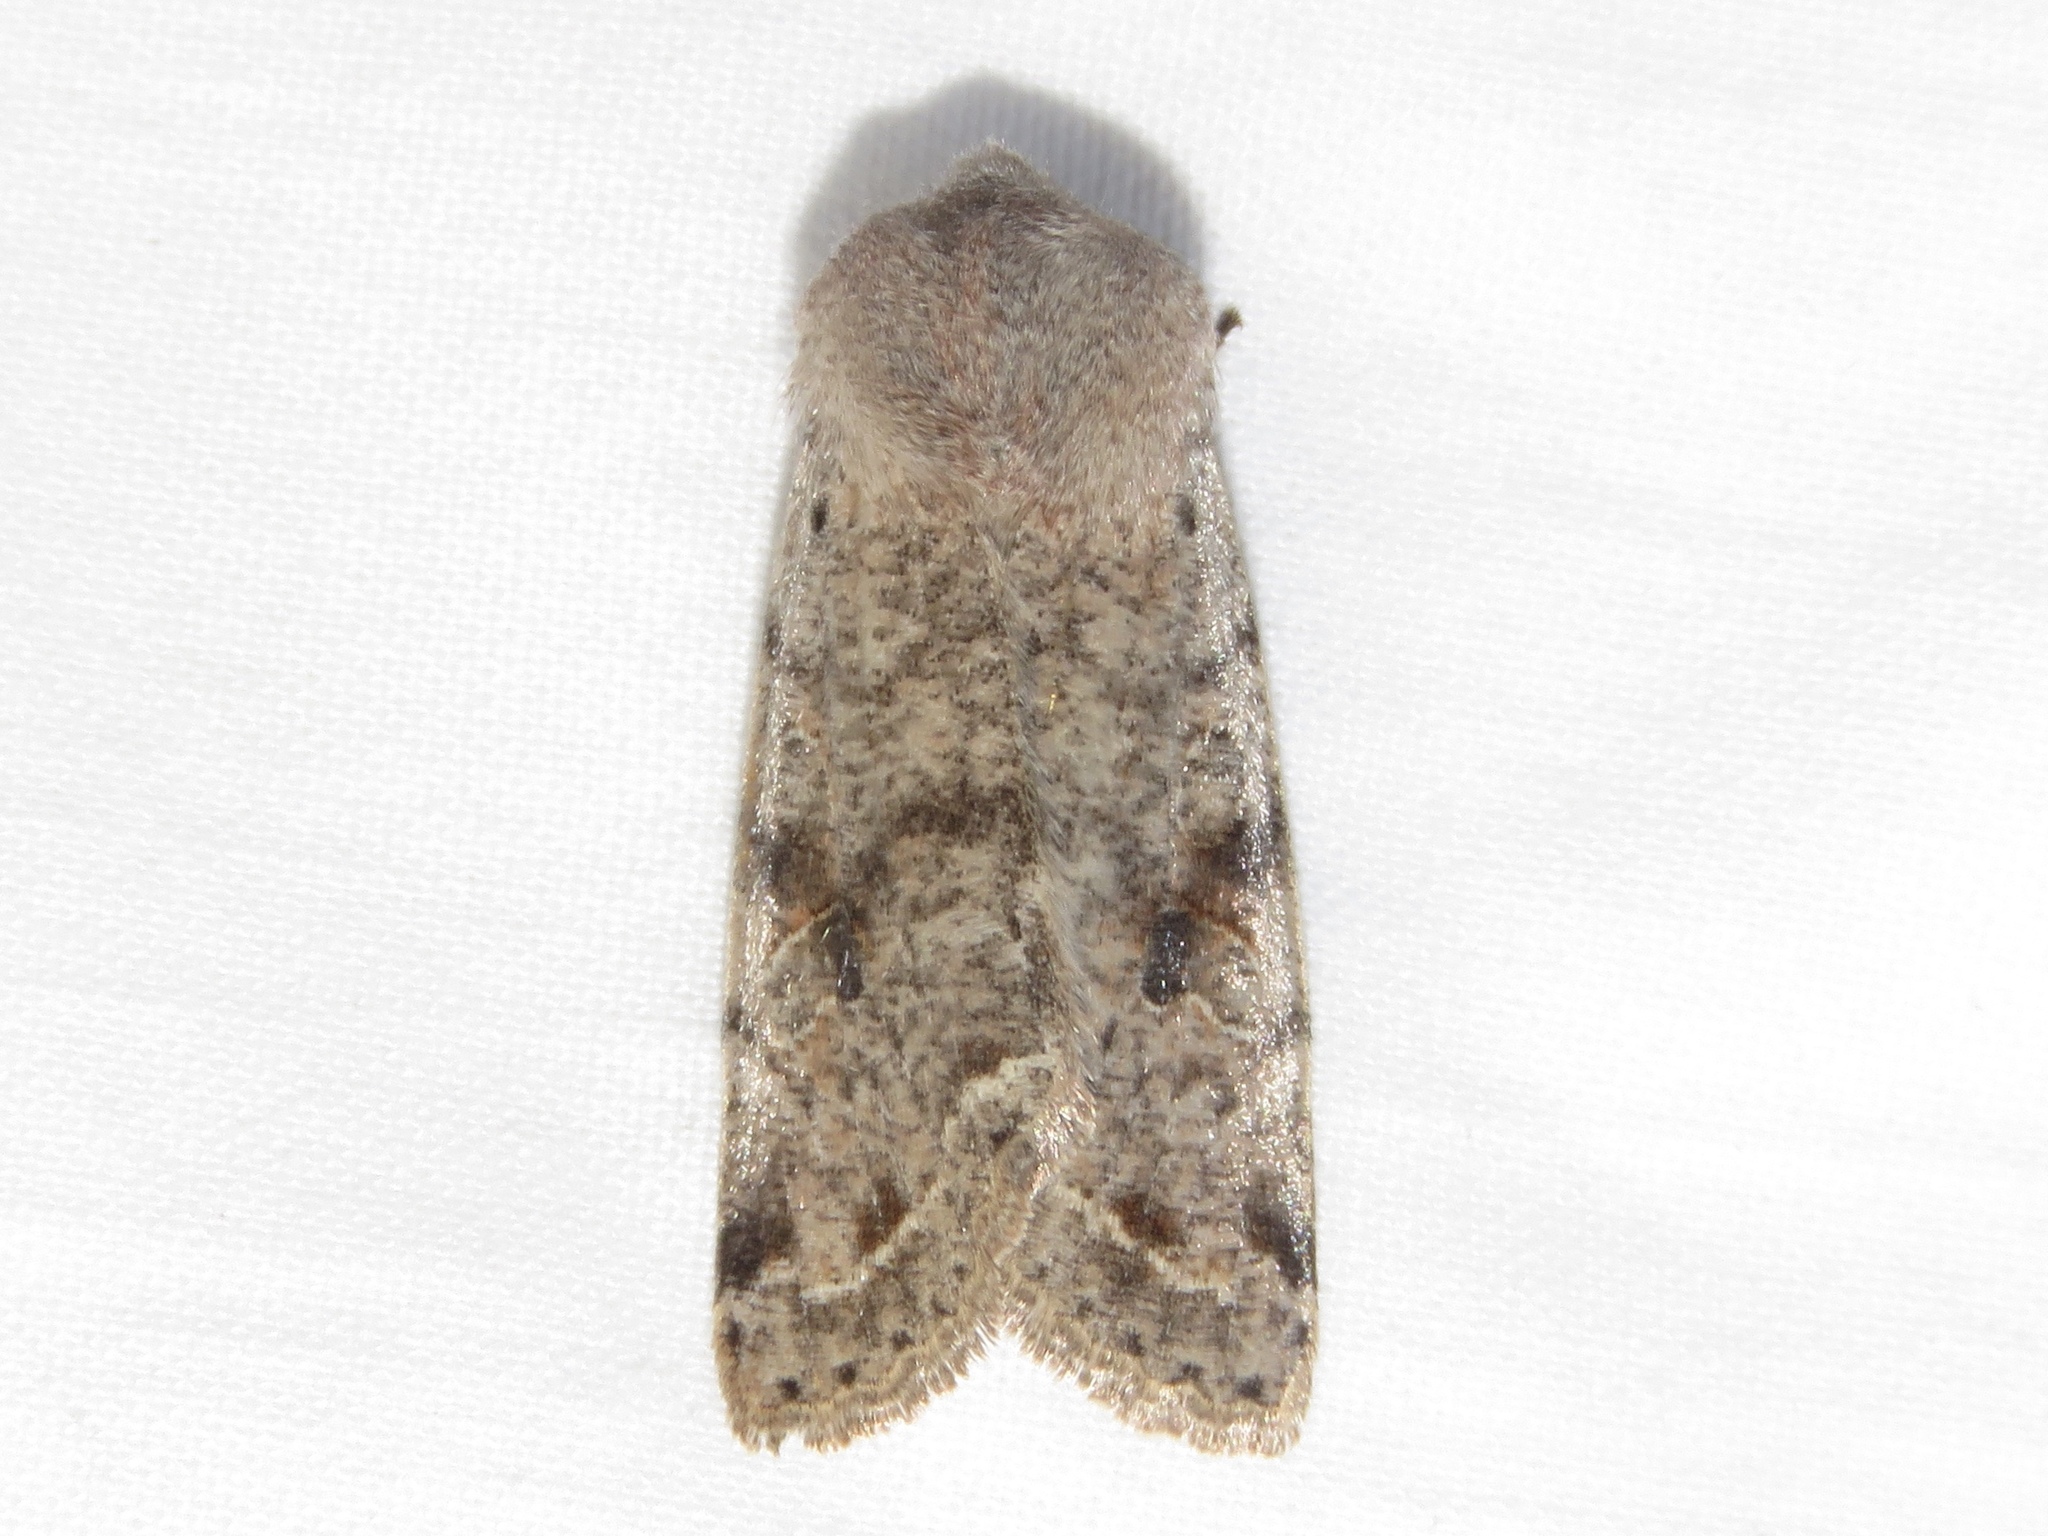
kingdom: Animalia
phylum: Arthropoda
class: Insecta
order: Lepidoptera
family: Noctuidae
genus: Orthosia
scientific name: Orthosia hibisci
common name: Green fruitworm
